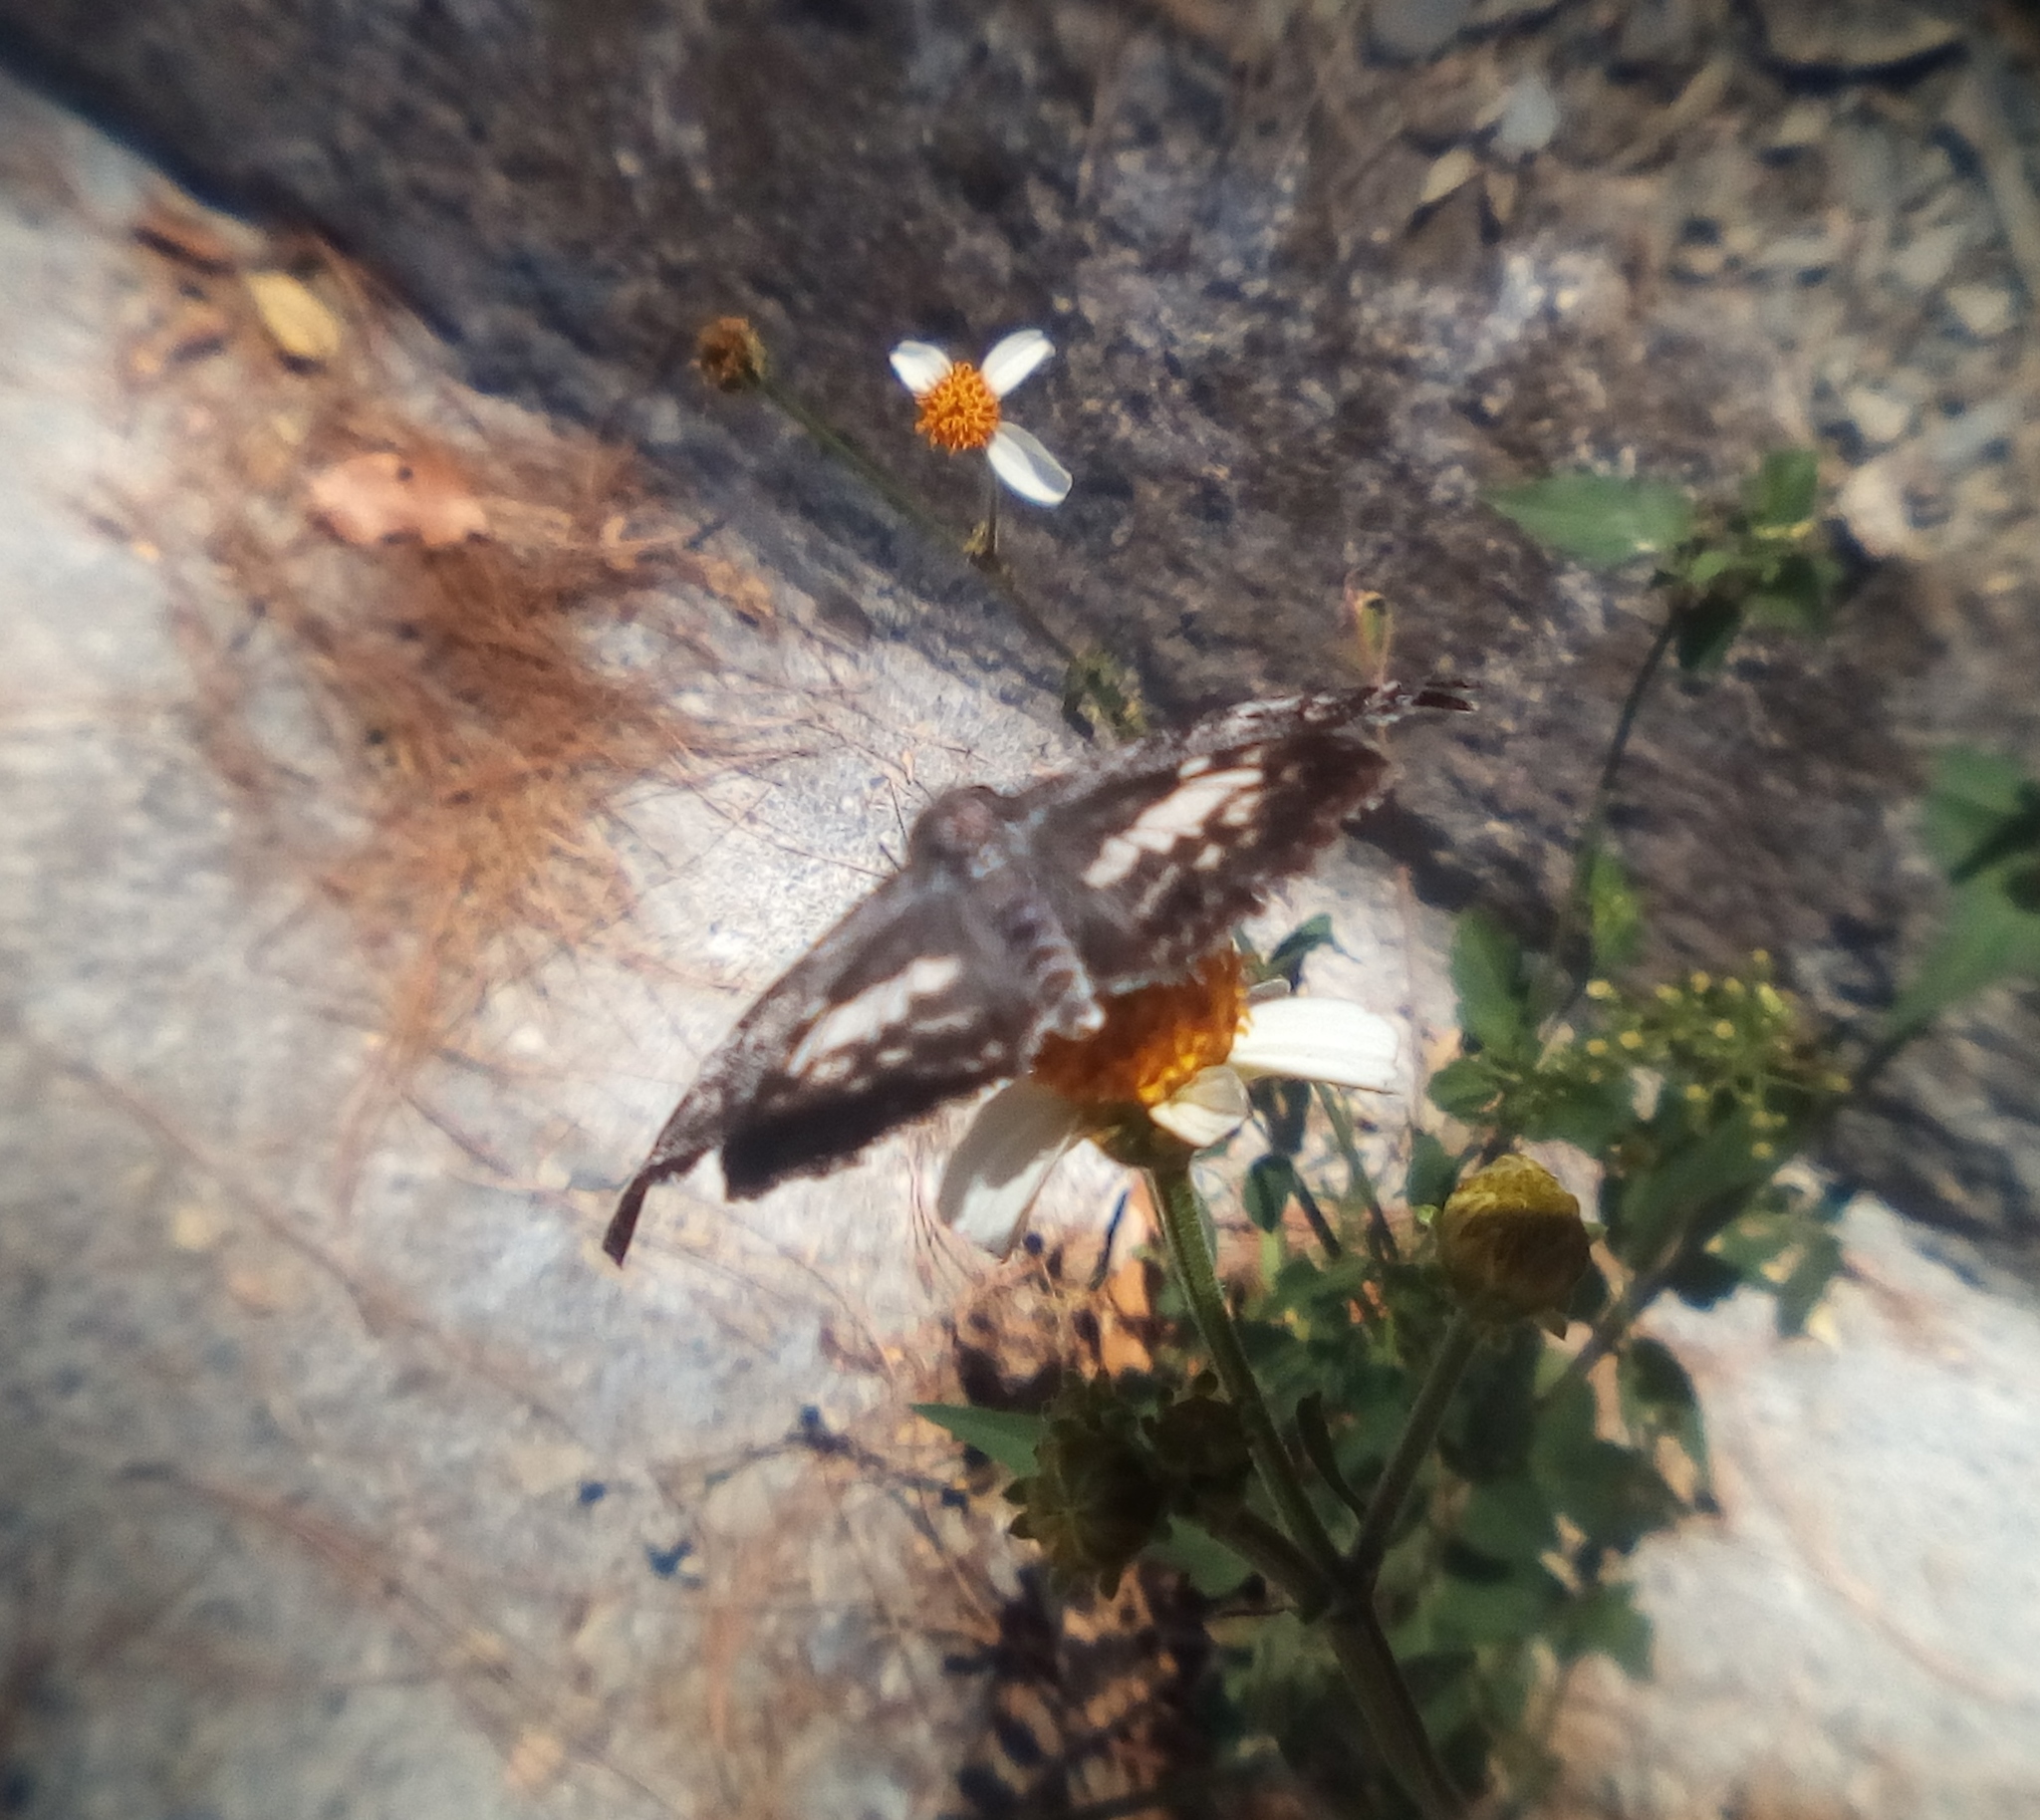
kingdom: Animalia
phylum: Arthropoda
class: Insecta
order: Lepidoptera
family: Nymphalidae
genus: Anthanassa
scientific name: Anthanassa texana
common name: Texan crescent
